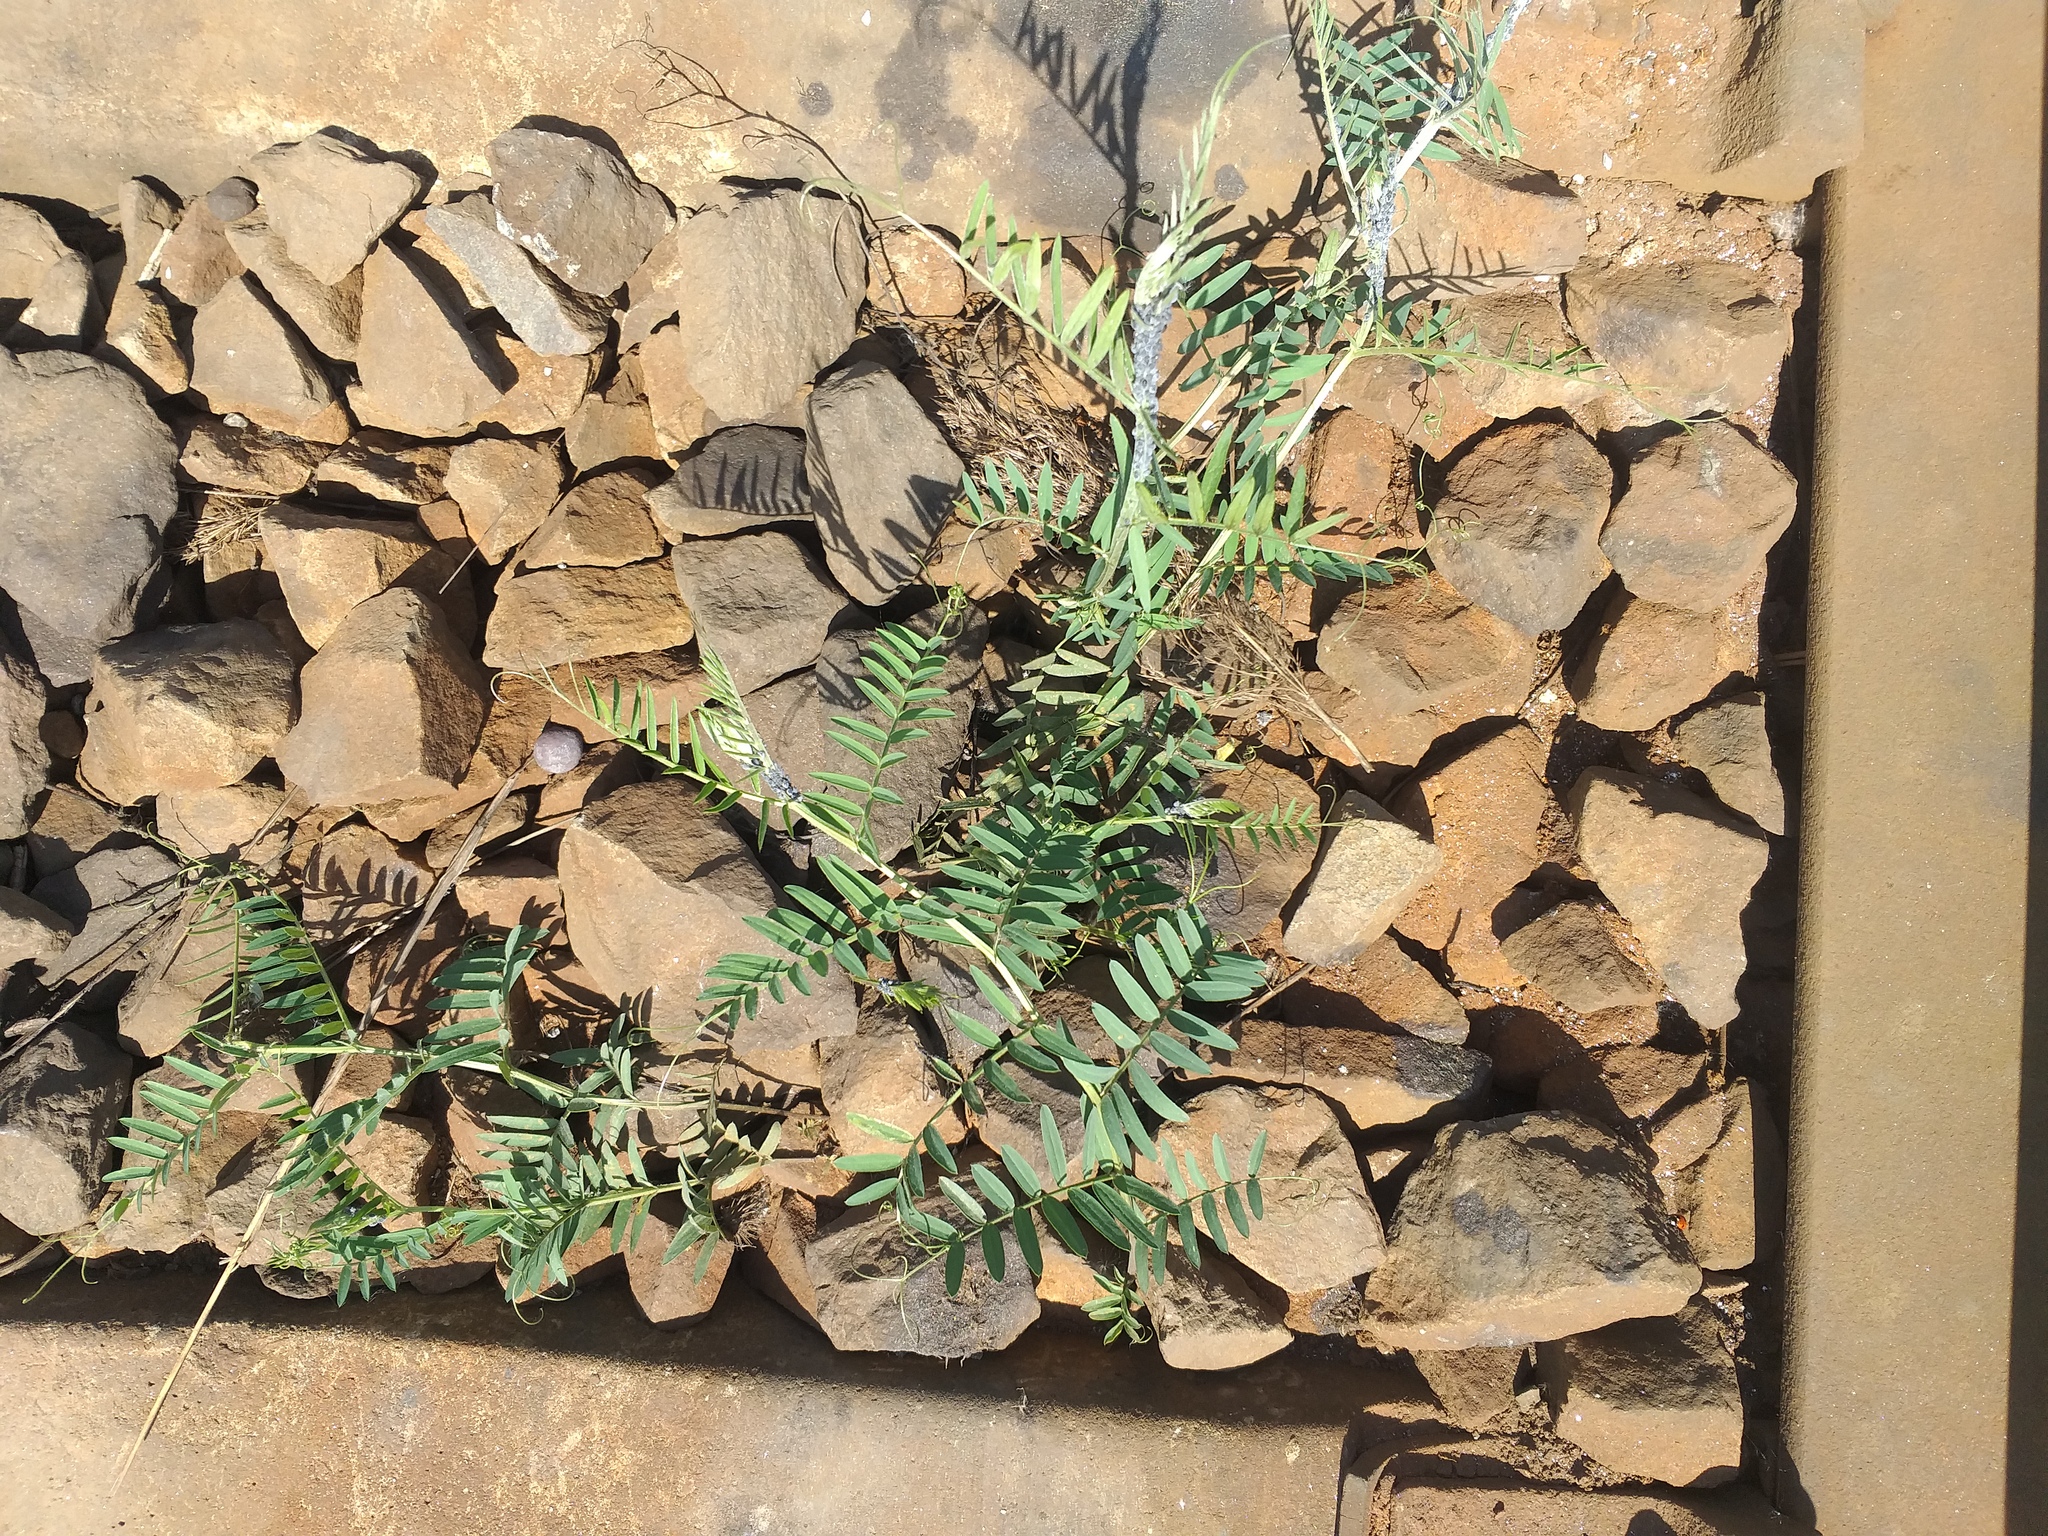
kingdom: Plantae
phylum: Tracheophyta
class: Magnoliopsida
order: Fabales
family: Fabaceae
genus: Vicia
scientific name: Vicia cracca
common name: Bird vetch
